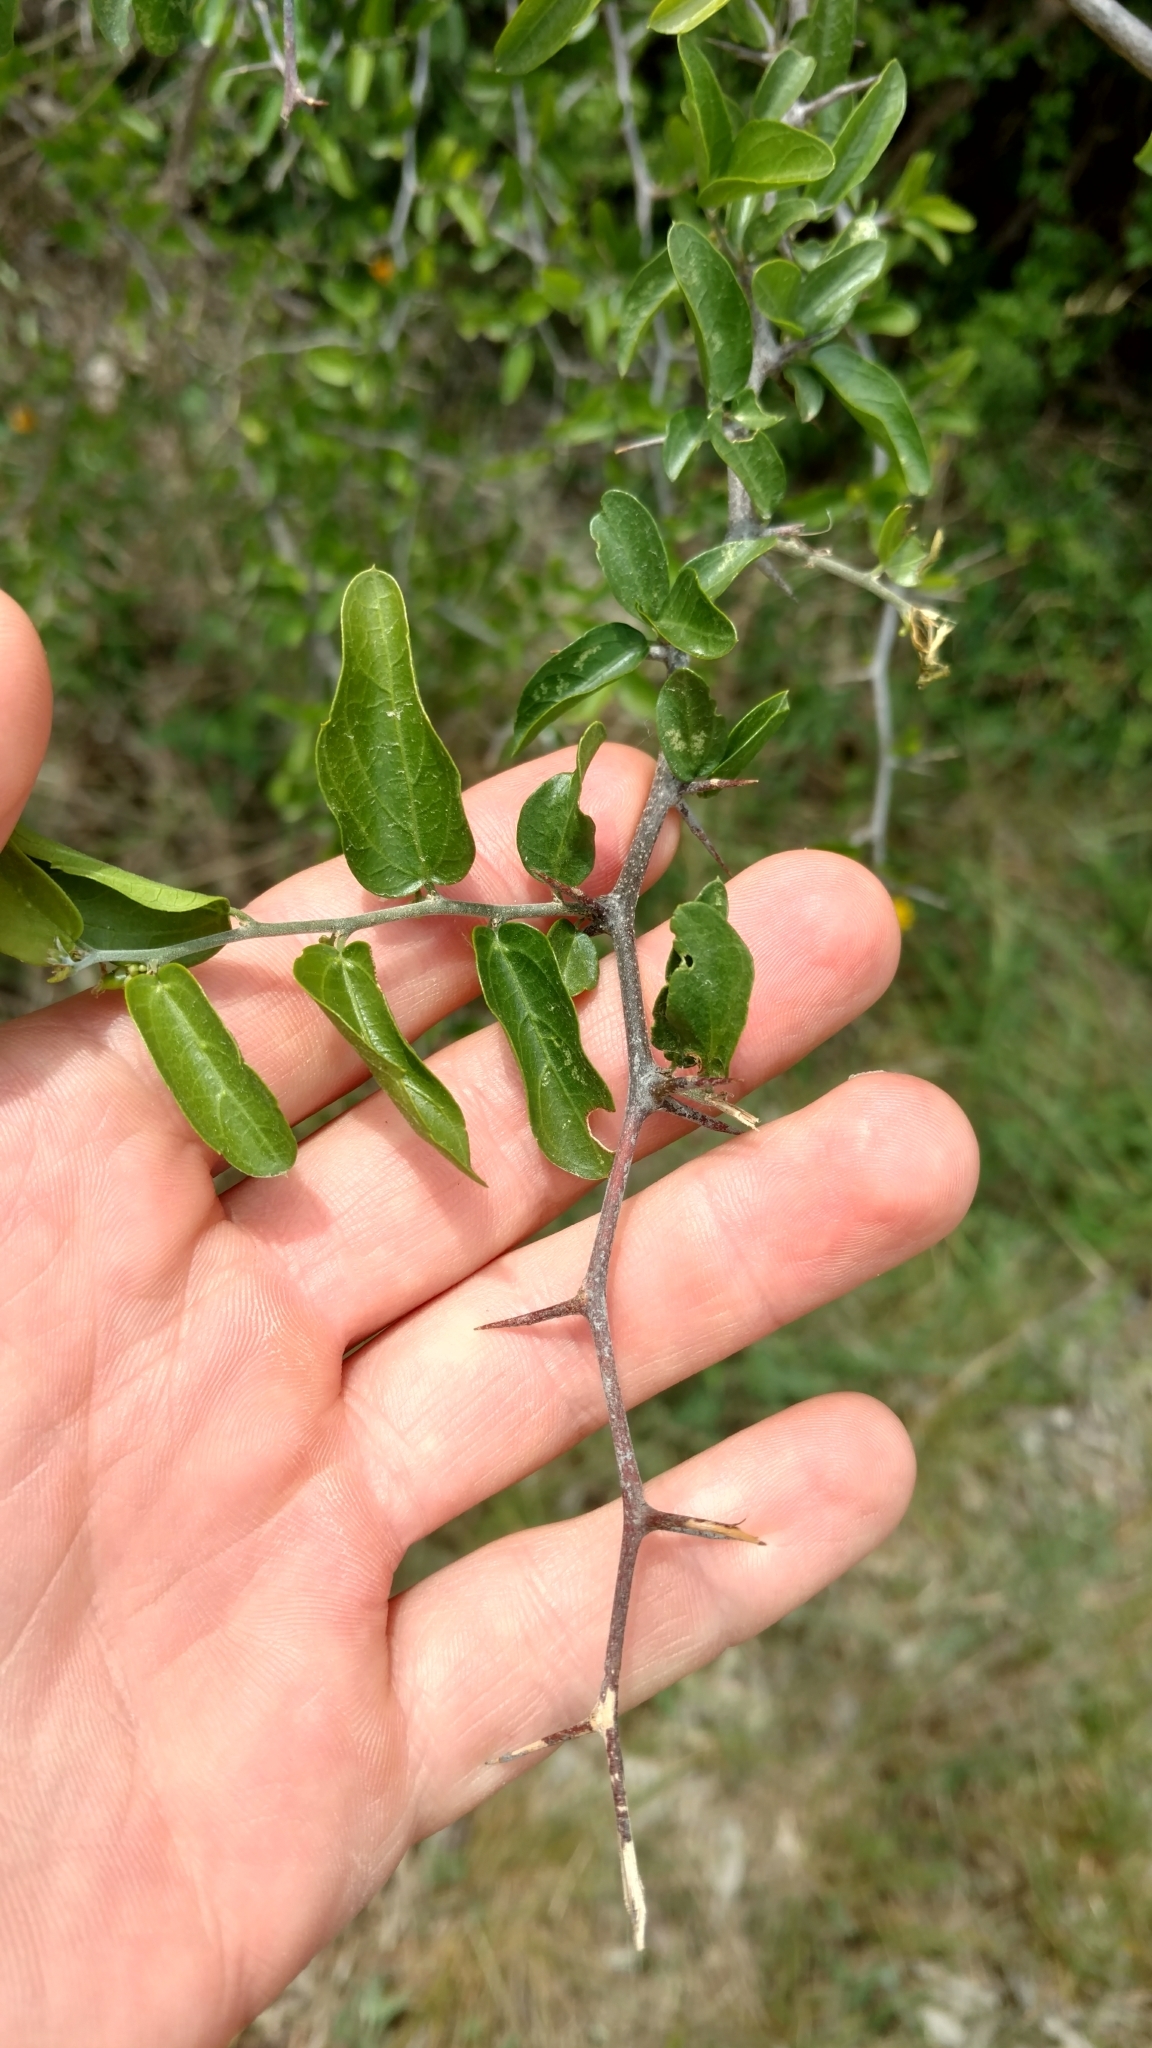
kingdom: Plantae
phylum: Tracheophyta
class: Magnoliopsida
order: Rosales
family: Cannabaceae
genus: Celtis
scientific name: Celtis pallida
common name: Desert hackberry
